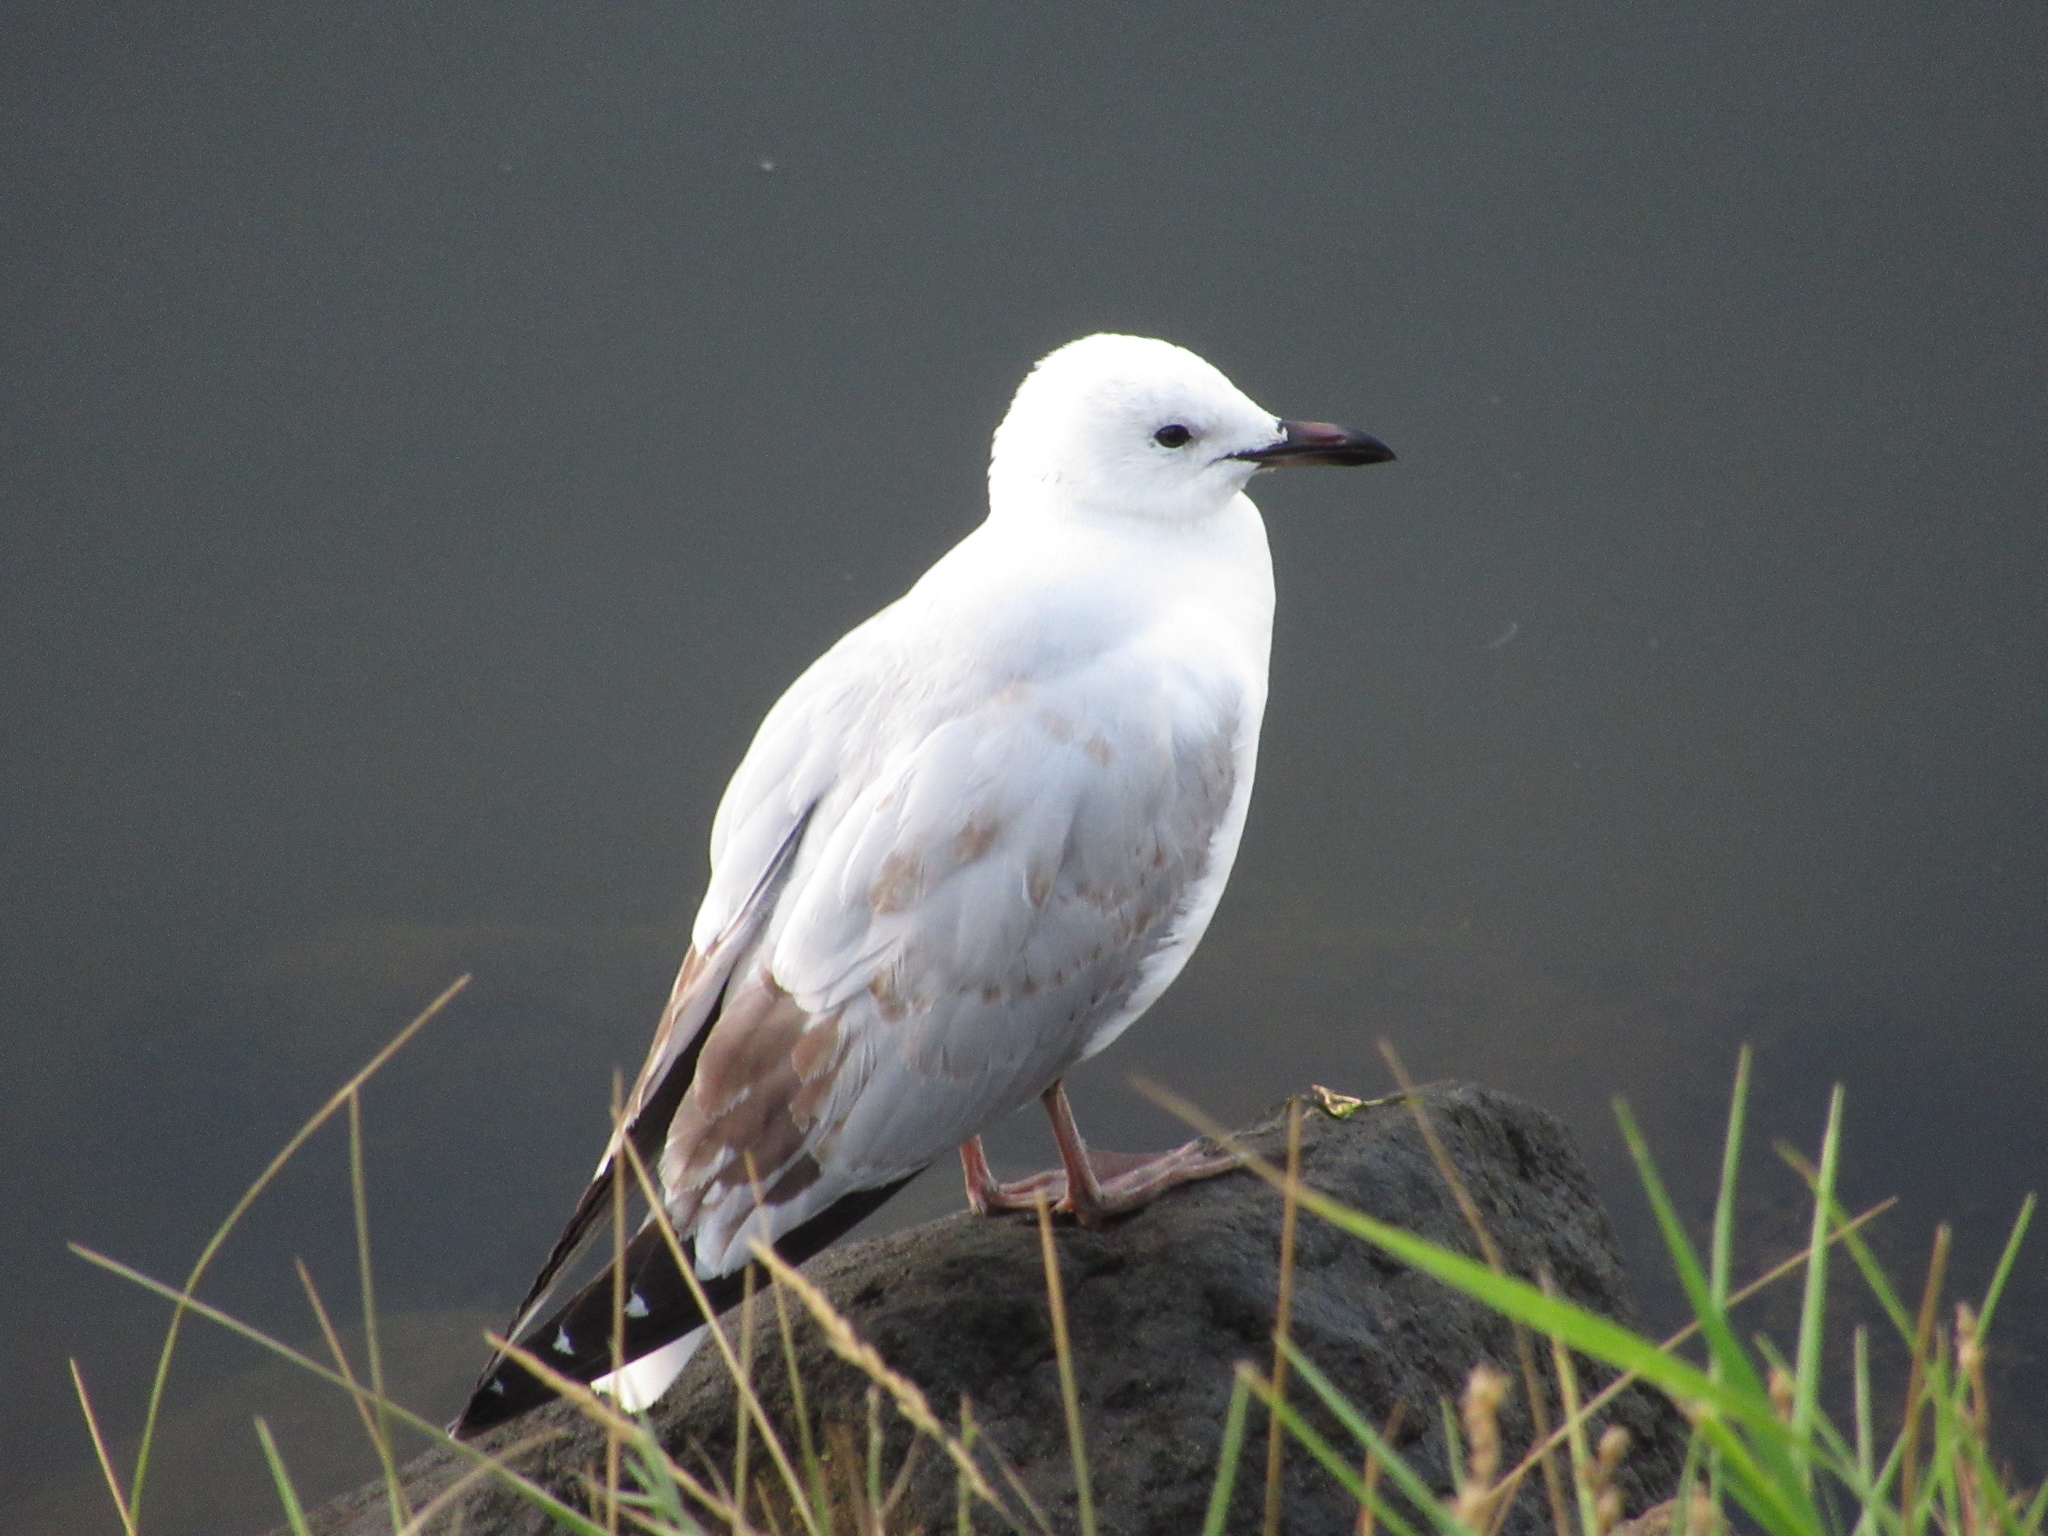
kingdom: Animalia
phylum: Chordata
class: Aves
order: Charadriiformes
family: Laridae
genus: Chroicocephalus
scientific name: Chroicocephalus novaehollandiae
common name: Silver gull
